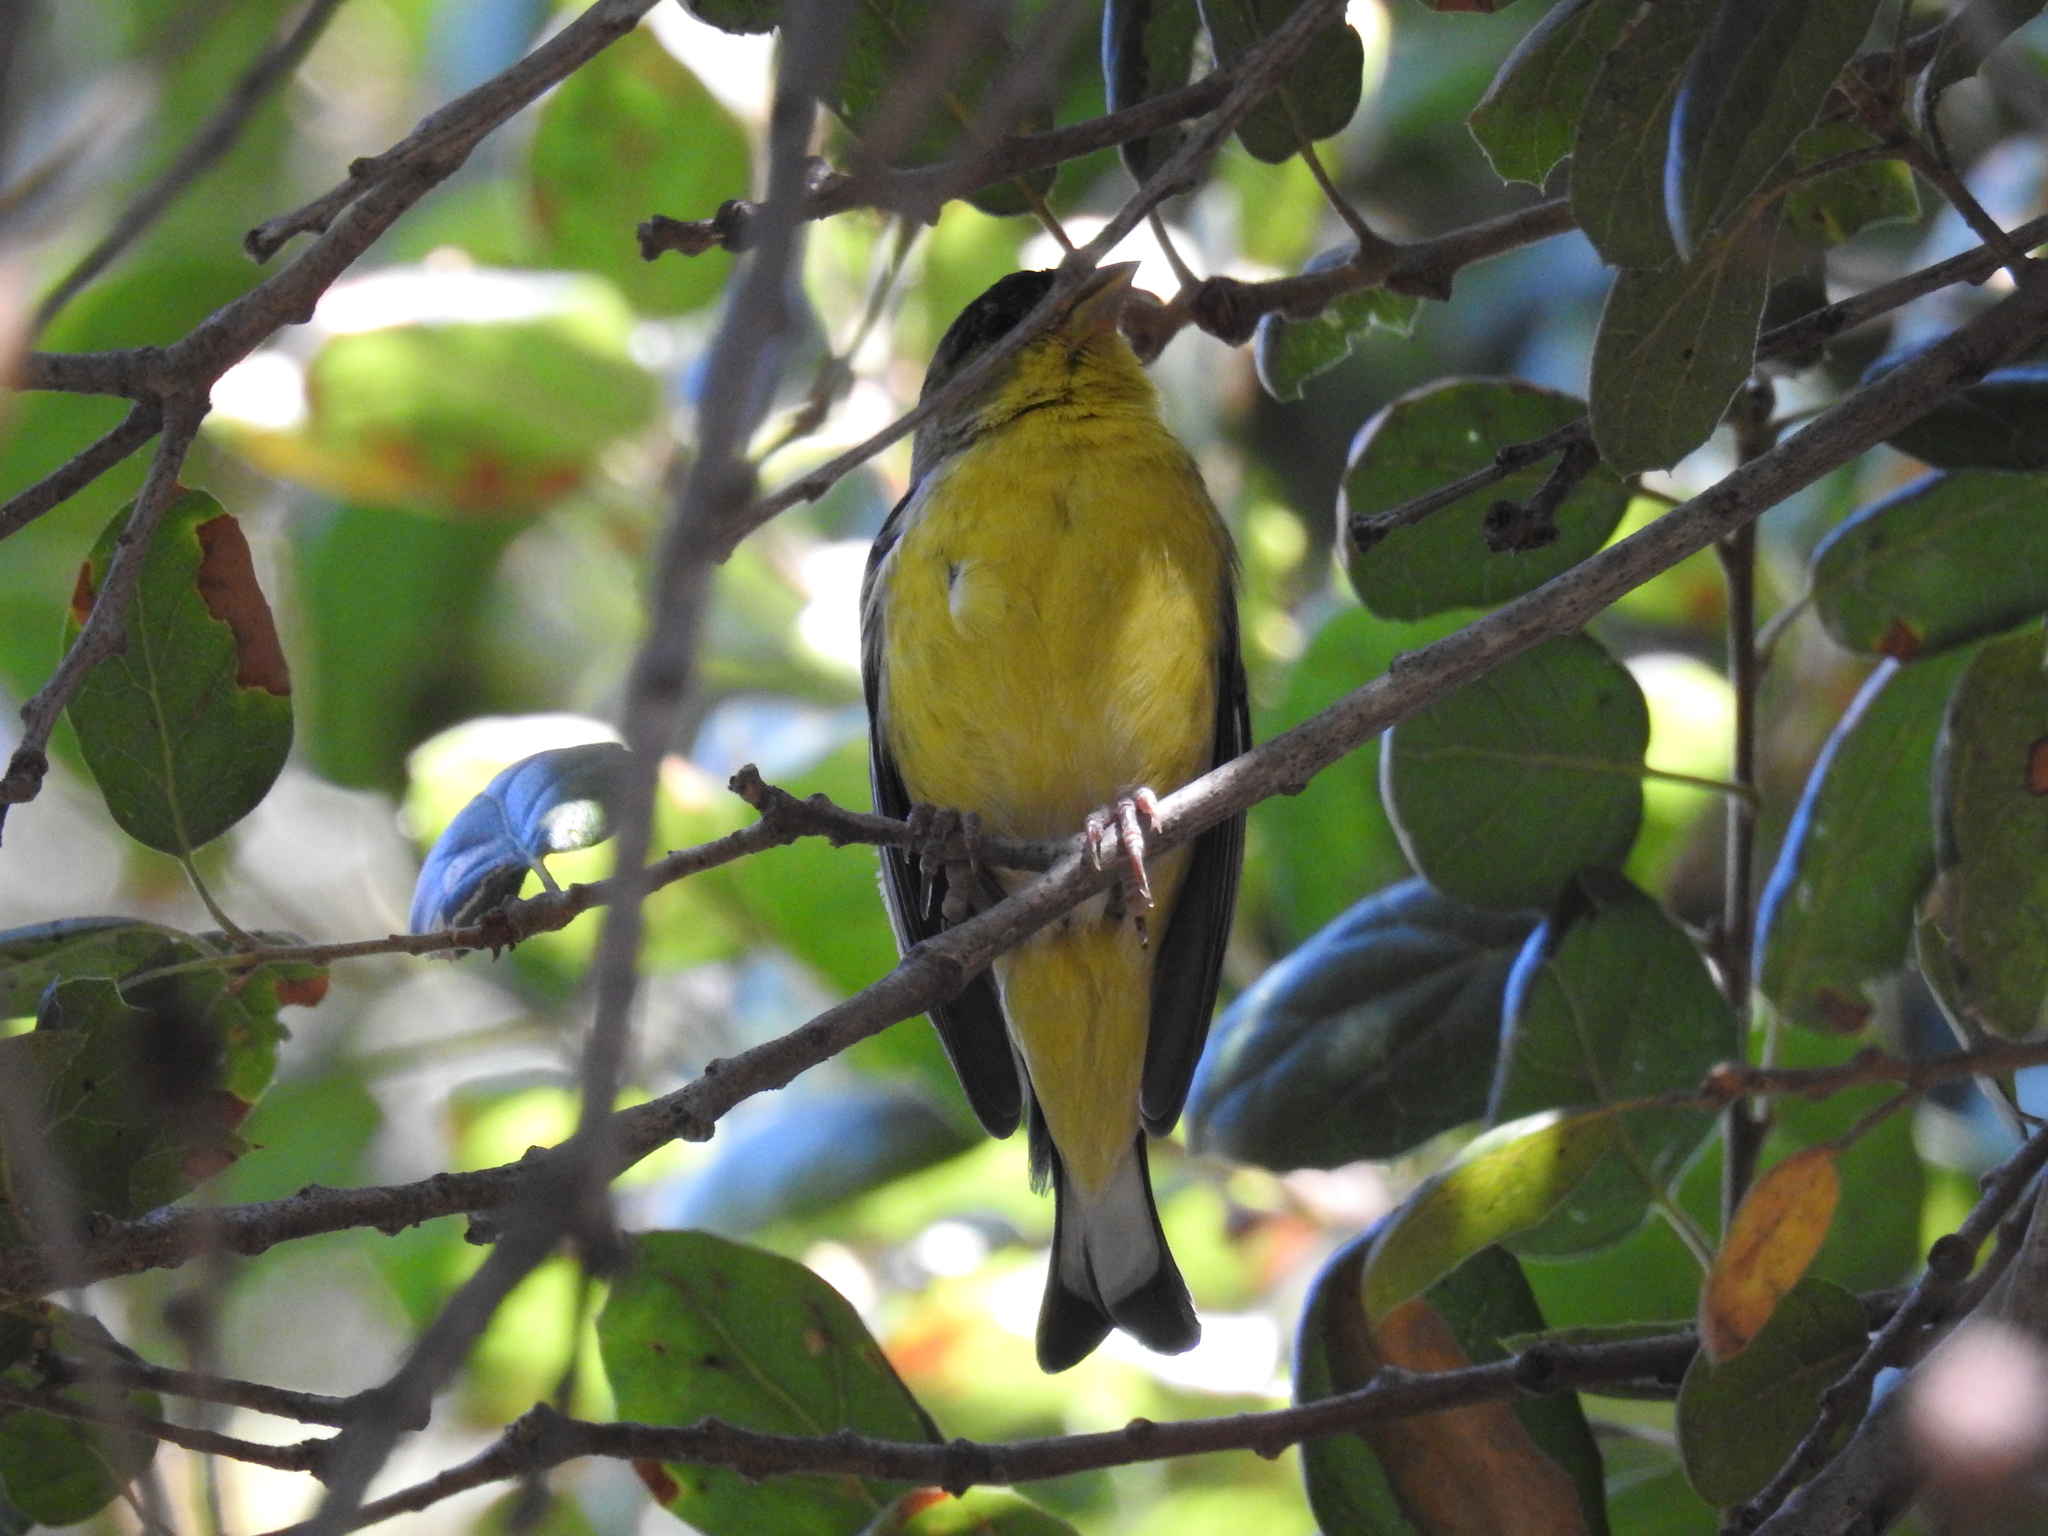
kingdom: Animalia
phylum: Chordata
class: Aves
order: Passeriformes
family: Fringillidae
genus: Spinus
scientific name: Spinus psaltria
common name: Lesser goldfinch
